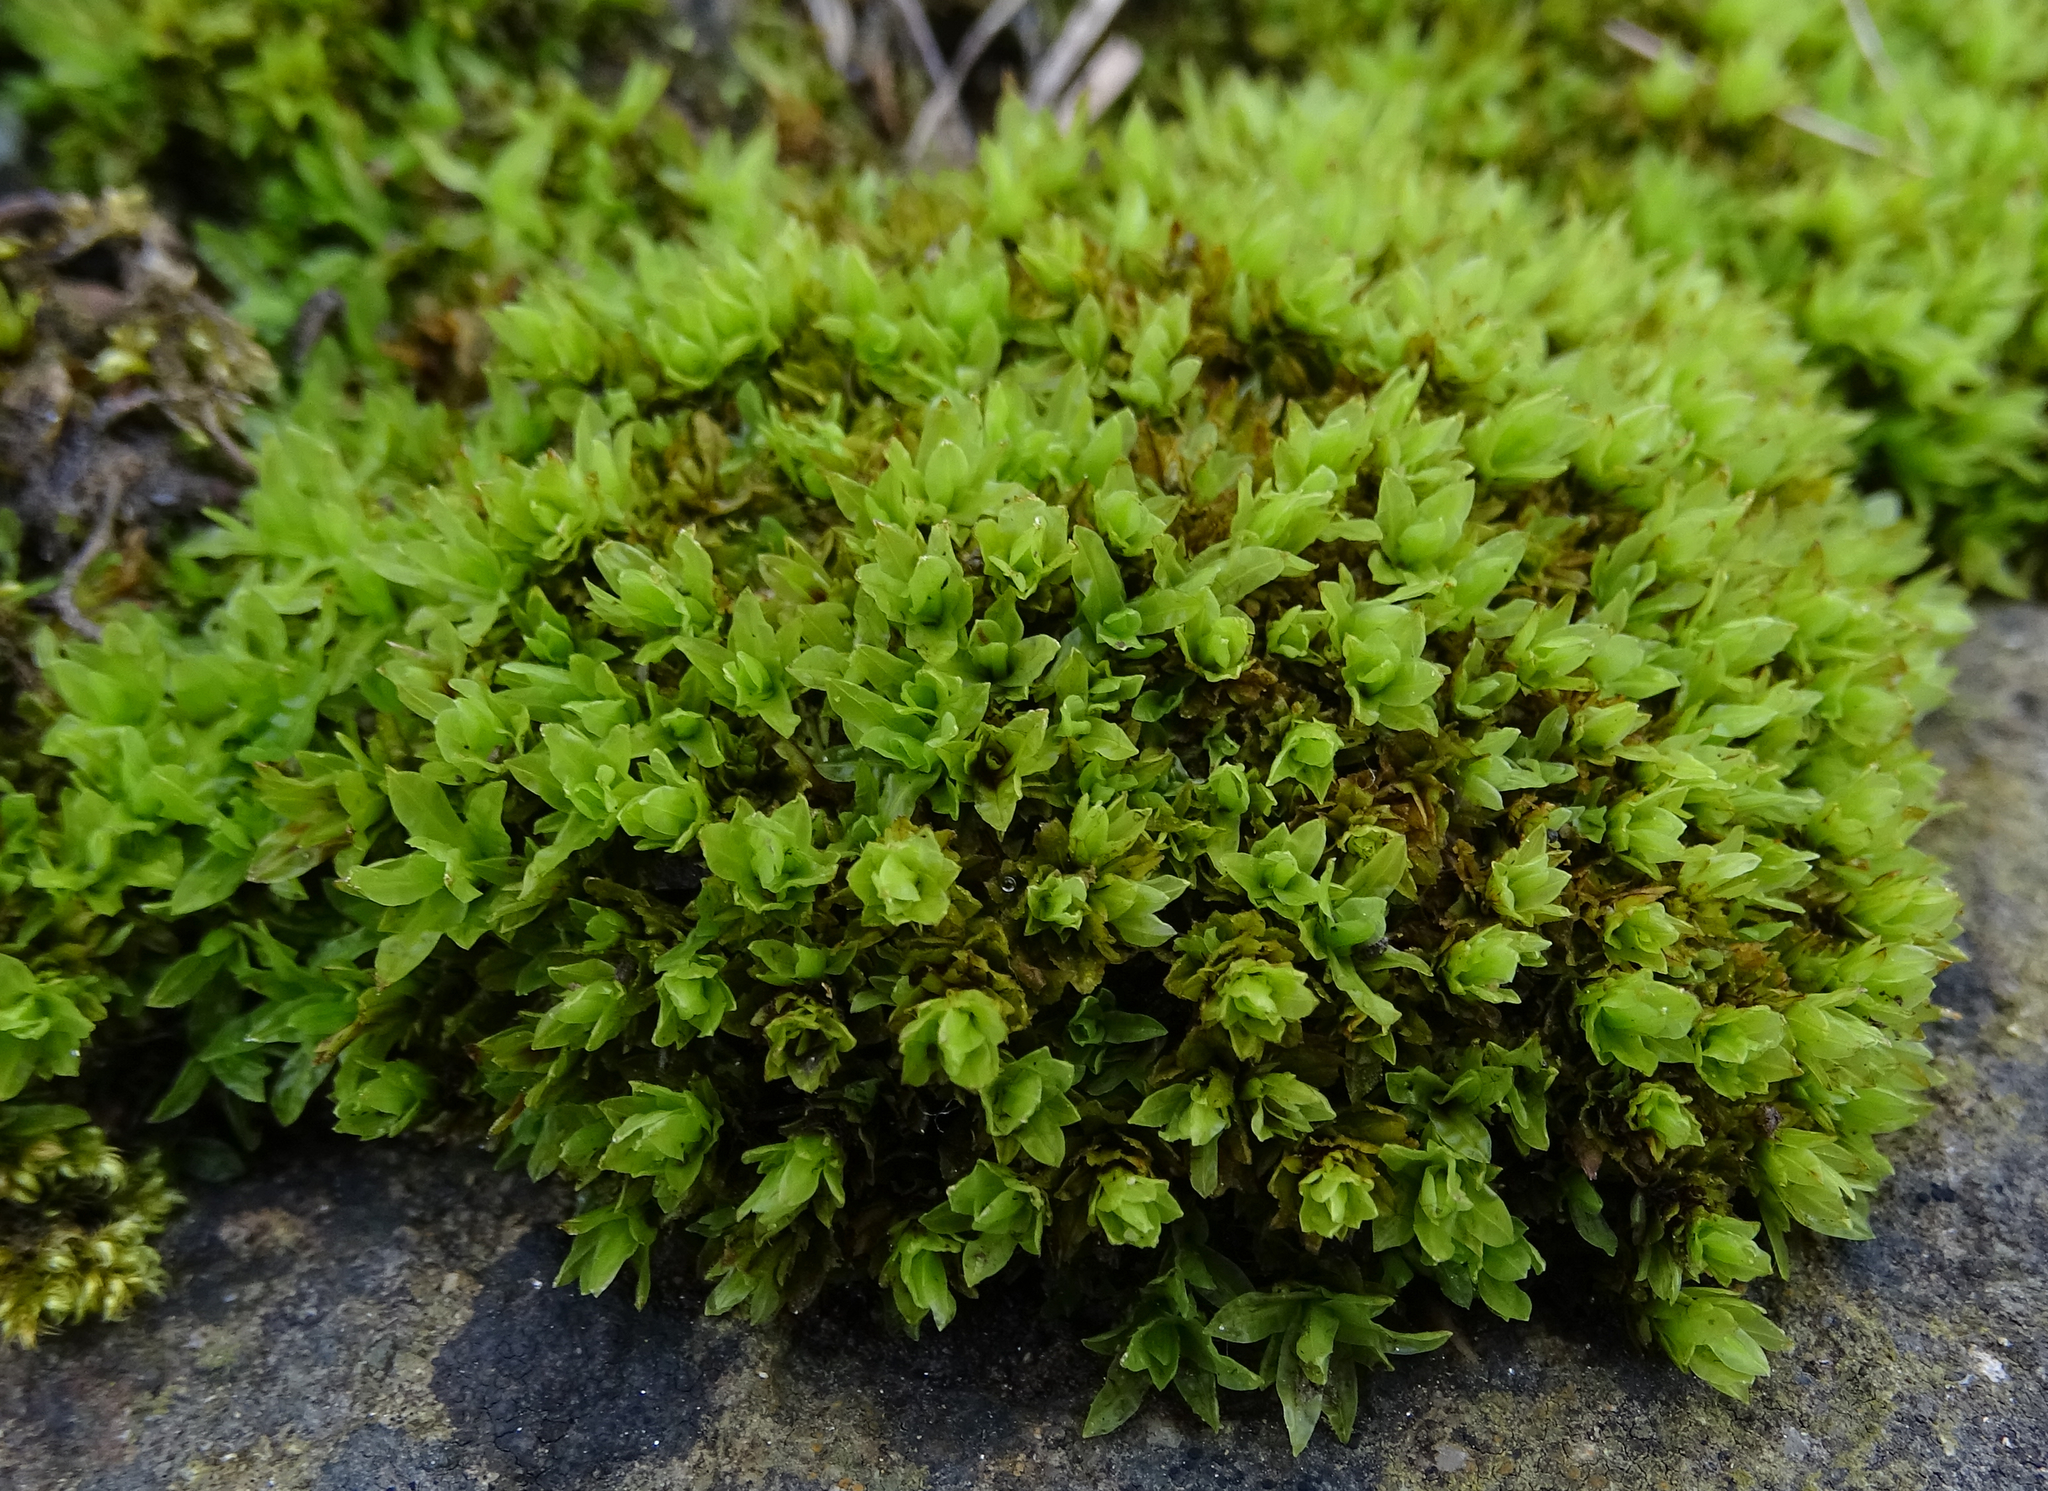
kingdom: Plantae
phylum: Bryophyta
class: Bryopsida
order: Encalyptales
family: Encalyptaceae
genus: Encalypta
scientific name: Encalypta streptocarpa
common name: Spiral extinguisher-moss
